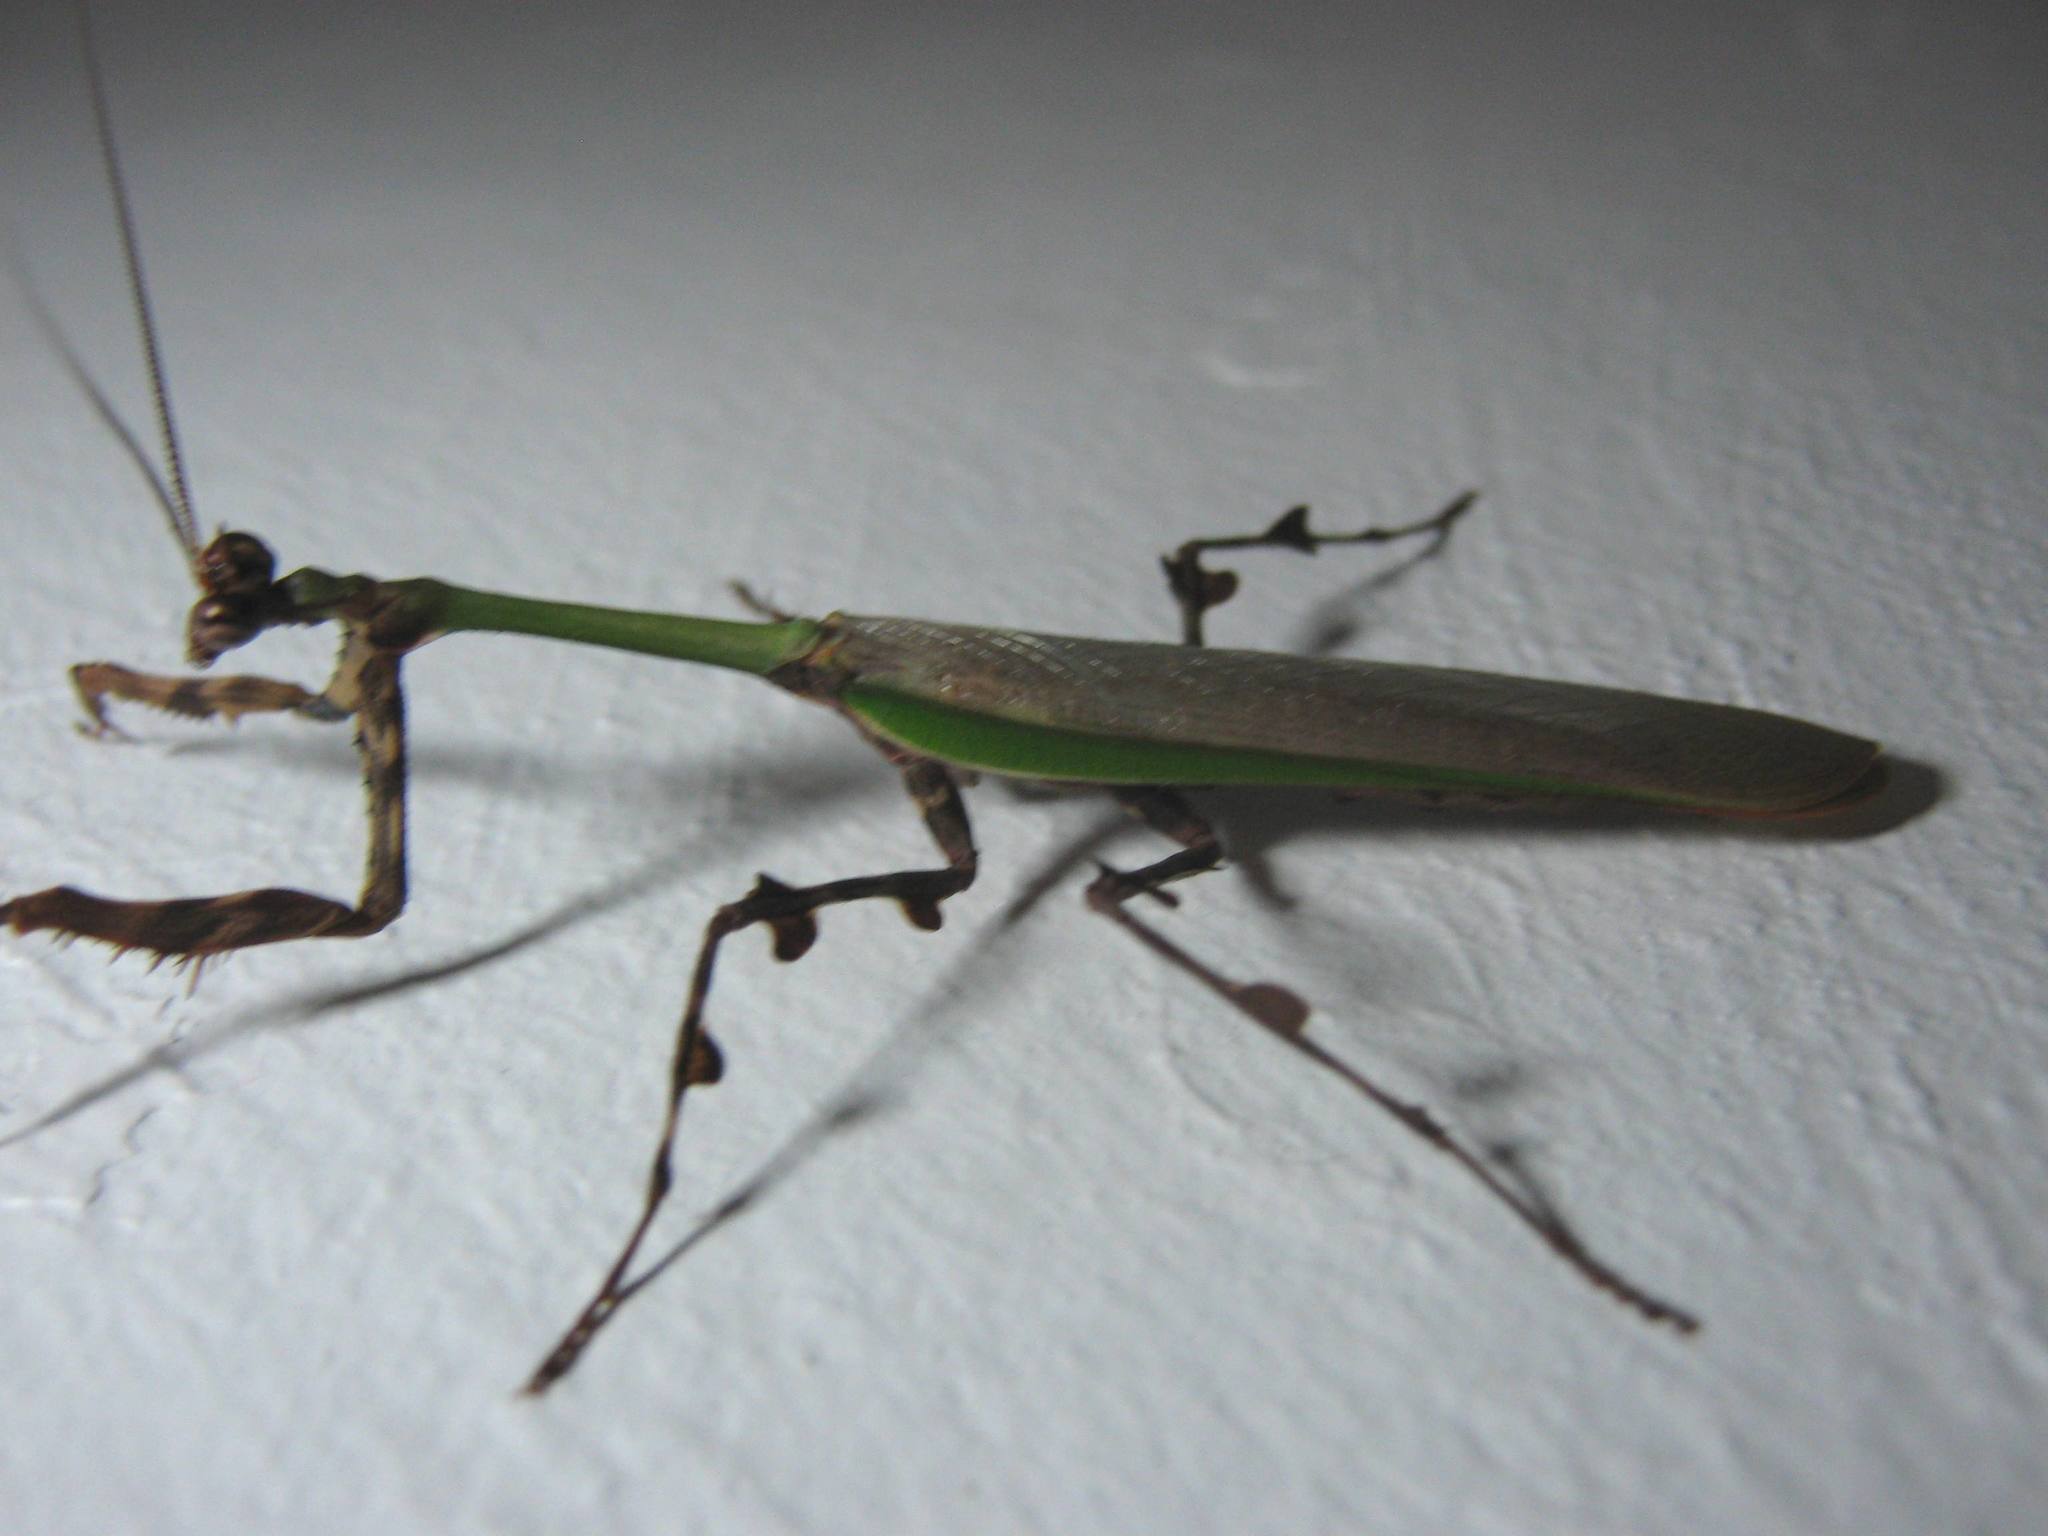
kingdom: Animalia
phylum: Arthropoda
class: Insecta
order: Mantodea
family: Mantidae
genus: Vates
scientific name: Vates pectinata
